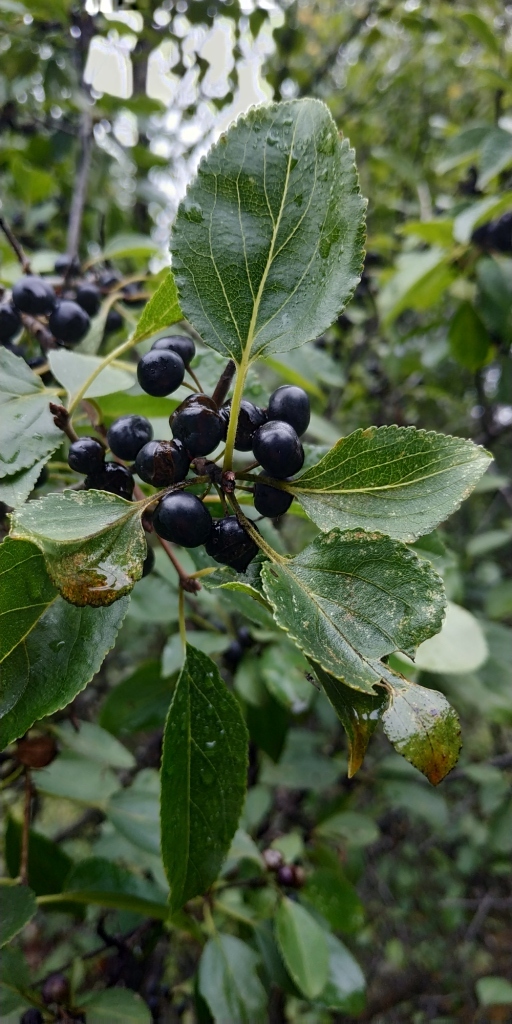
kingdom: Plantae
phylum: Tracheophyta
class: Magnoliopsida
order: Rosales
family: Rhamnaceae
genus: Rhamnus
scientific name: Rhamnus cathartica
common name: Common buckthorn
